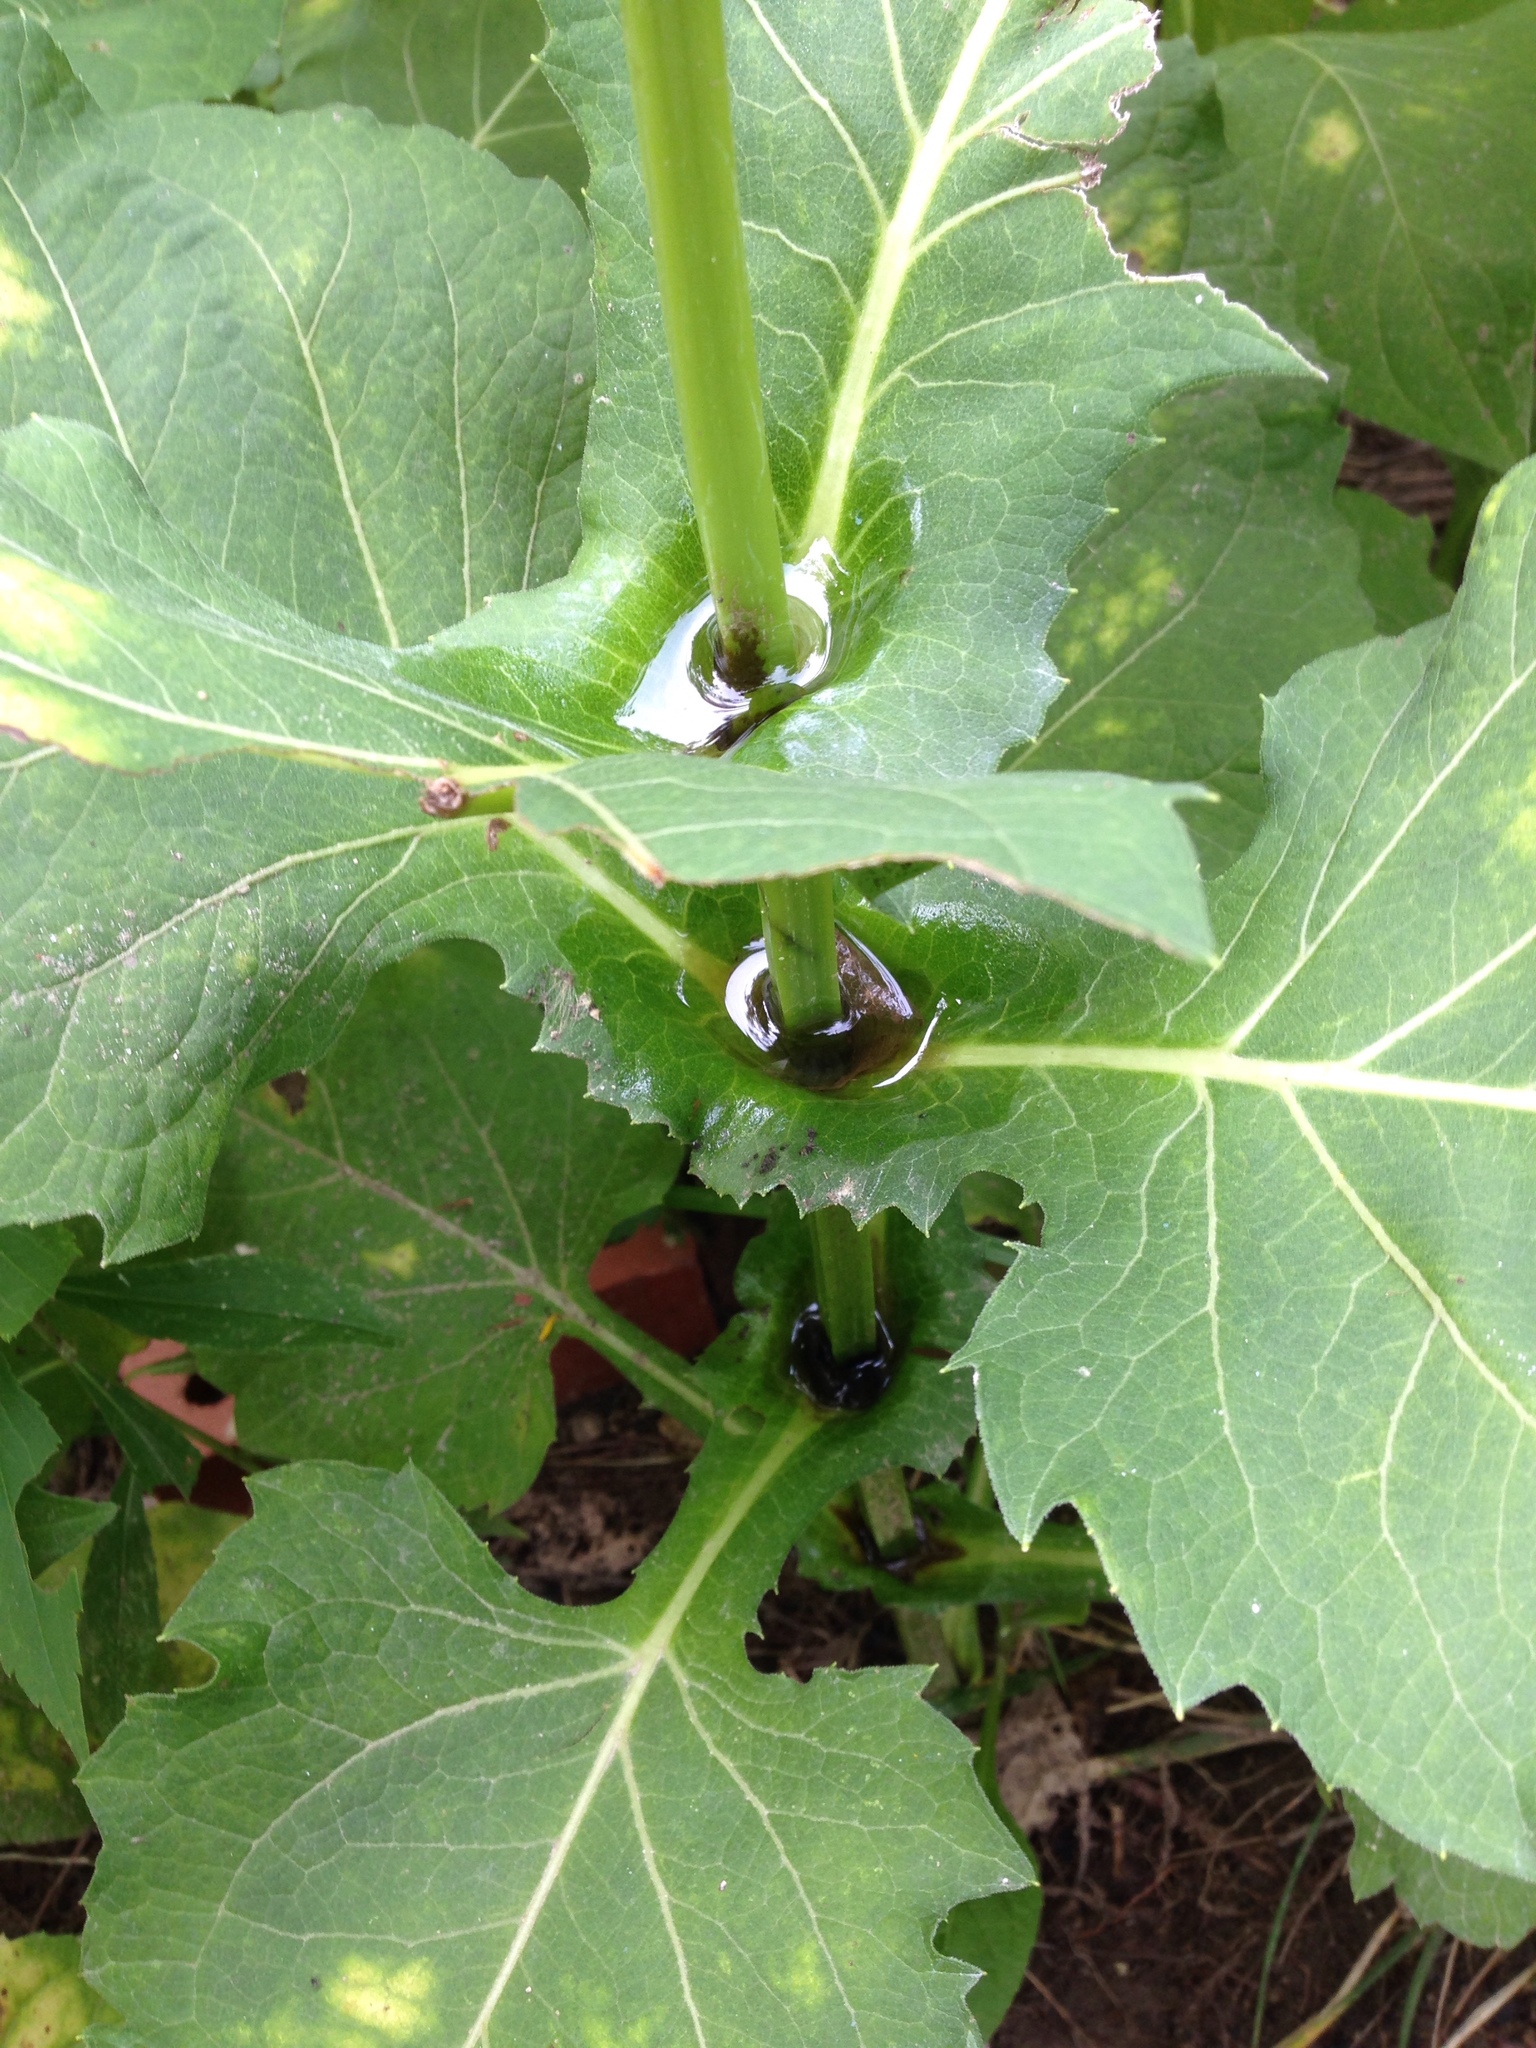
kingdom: Plantae
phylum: Tracheophyta
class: Magnoliopsida
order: Asterales
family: Asteraceae
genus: Silphium
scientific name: Silphium perfoliatum
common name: Cup-plant
